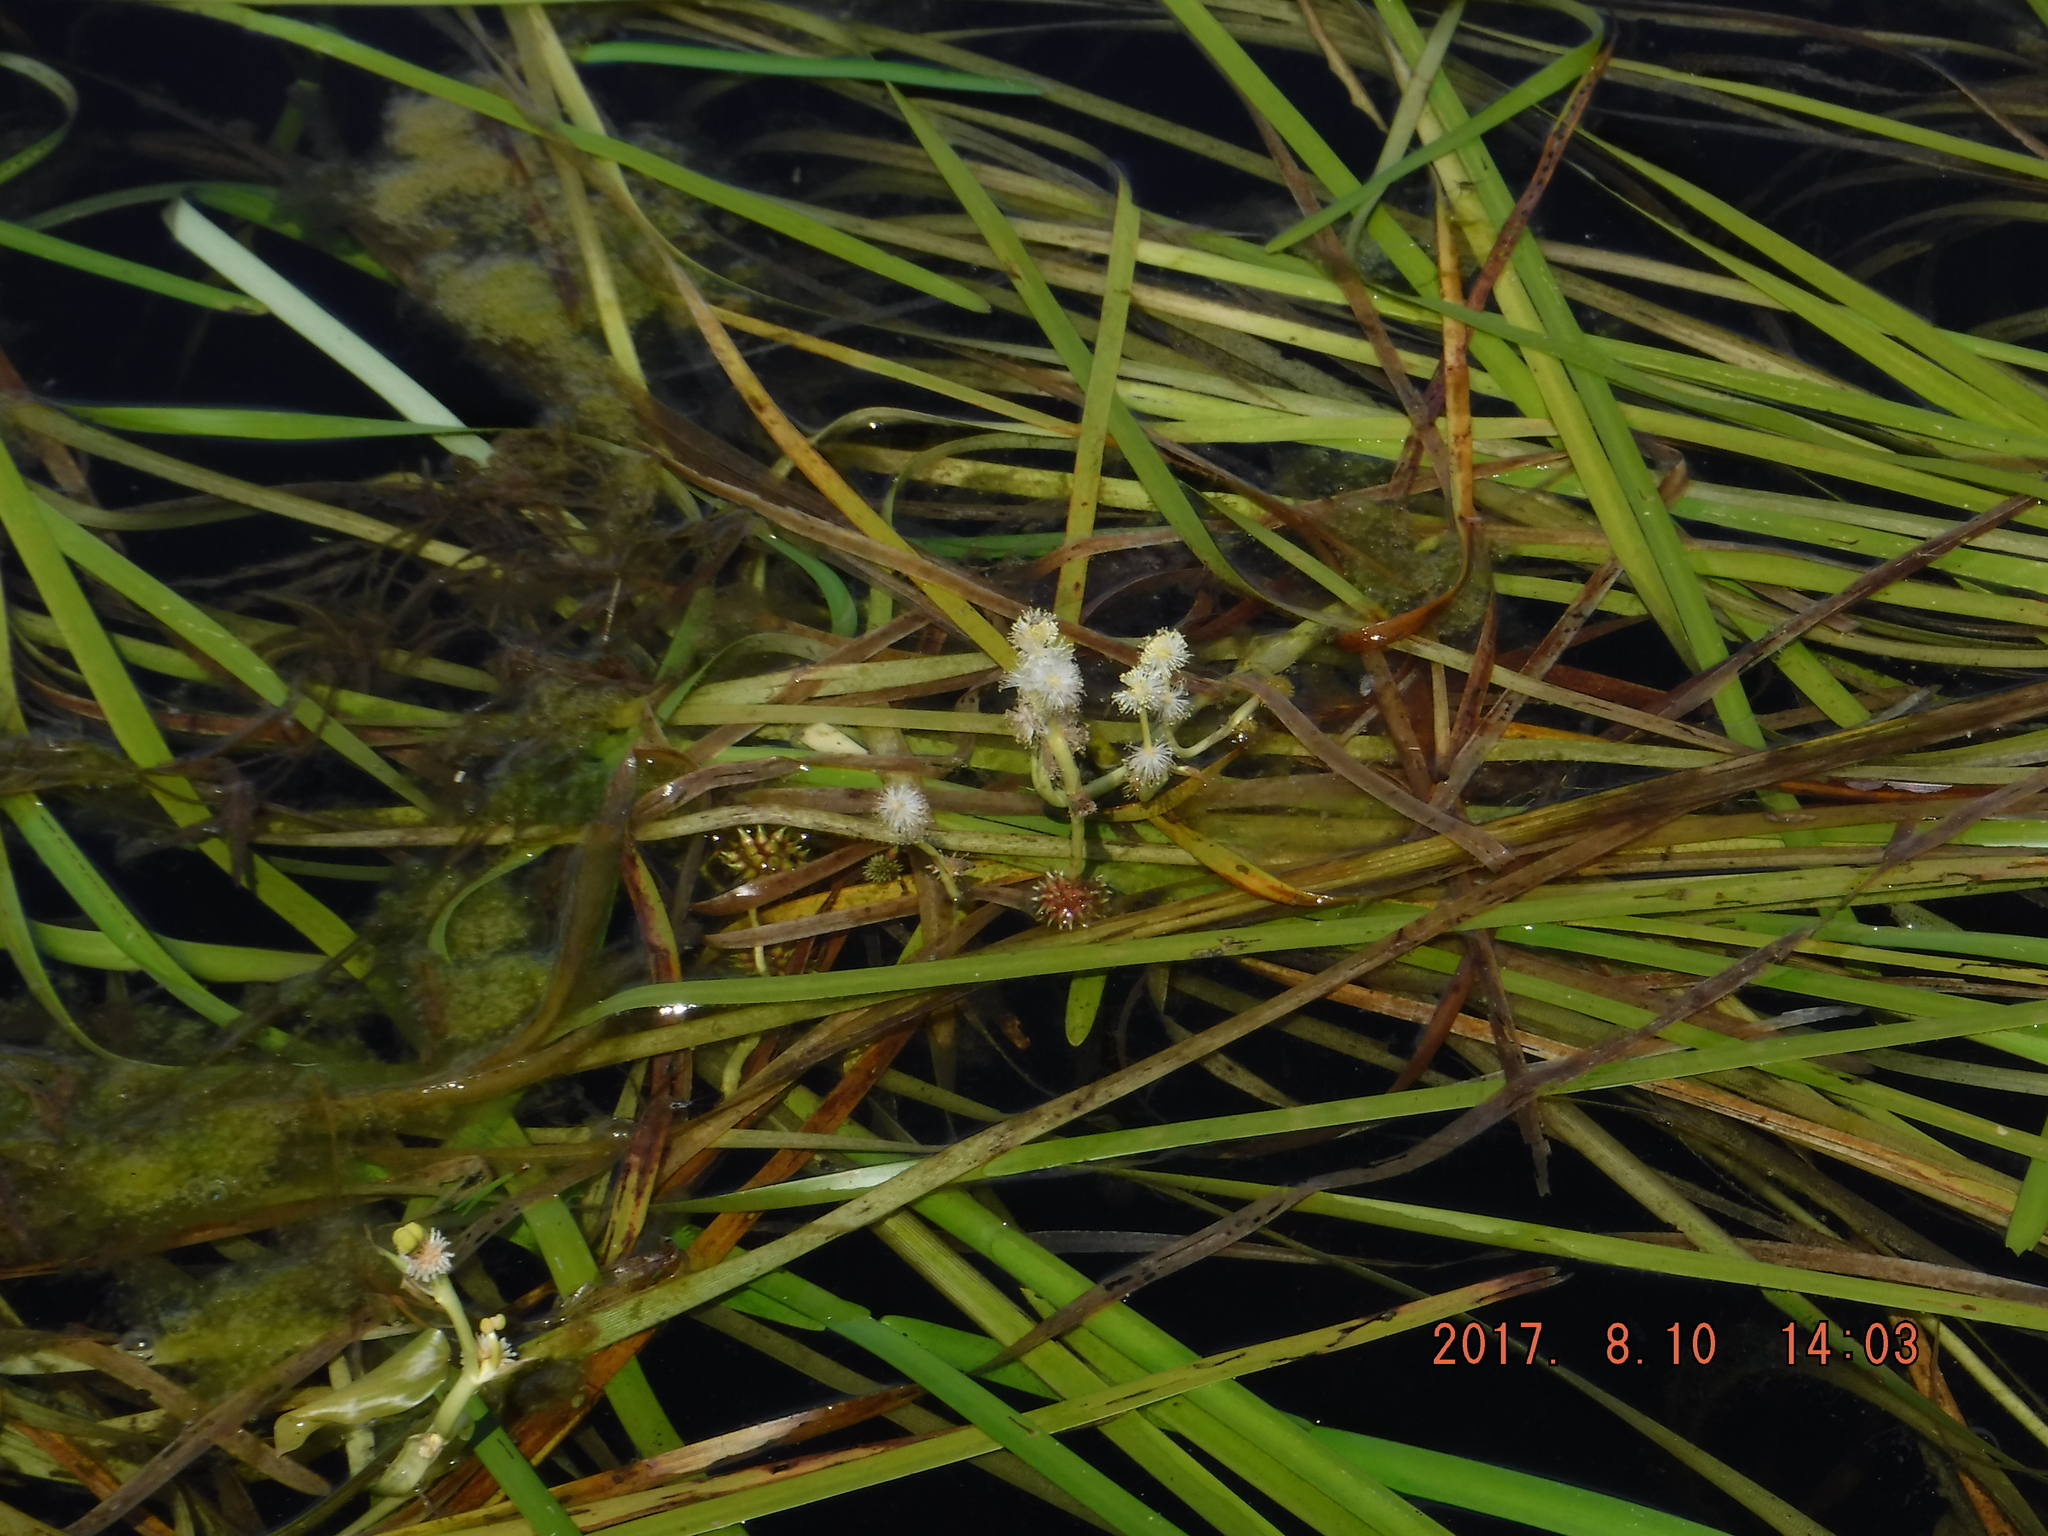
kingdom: Plantae
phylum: Tracheophyta
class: Liliopsida
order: Poales
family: Typhaceae
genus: Sparganium
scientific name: Sparganium fluctuans
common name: Floating burreed
